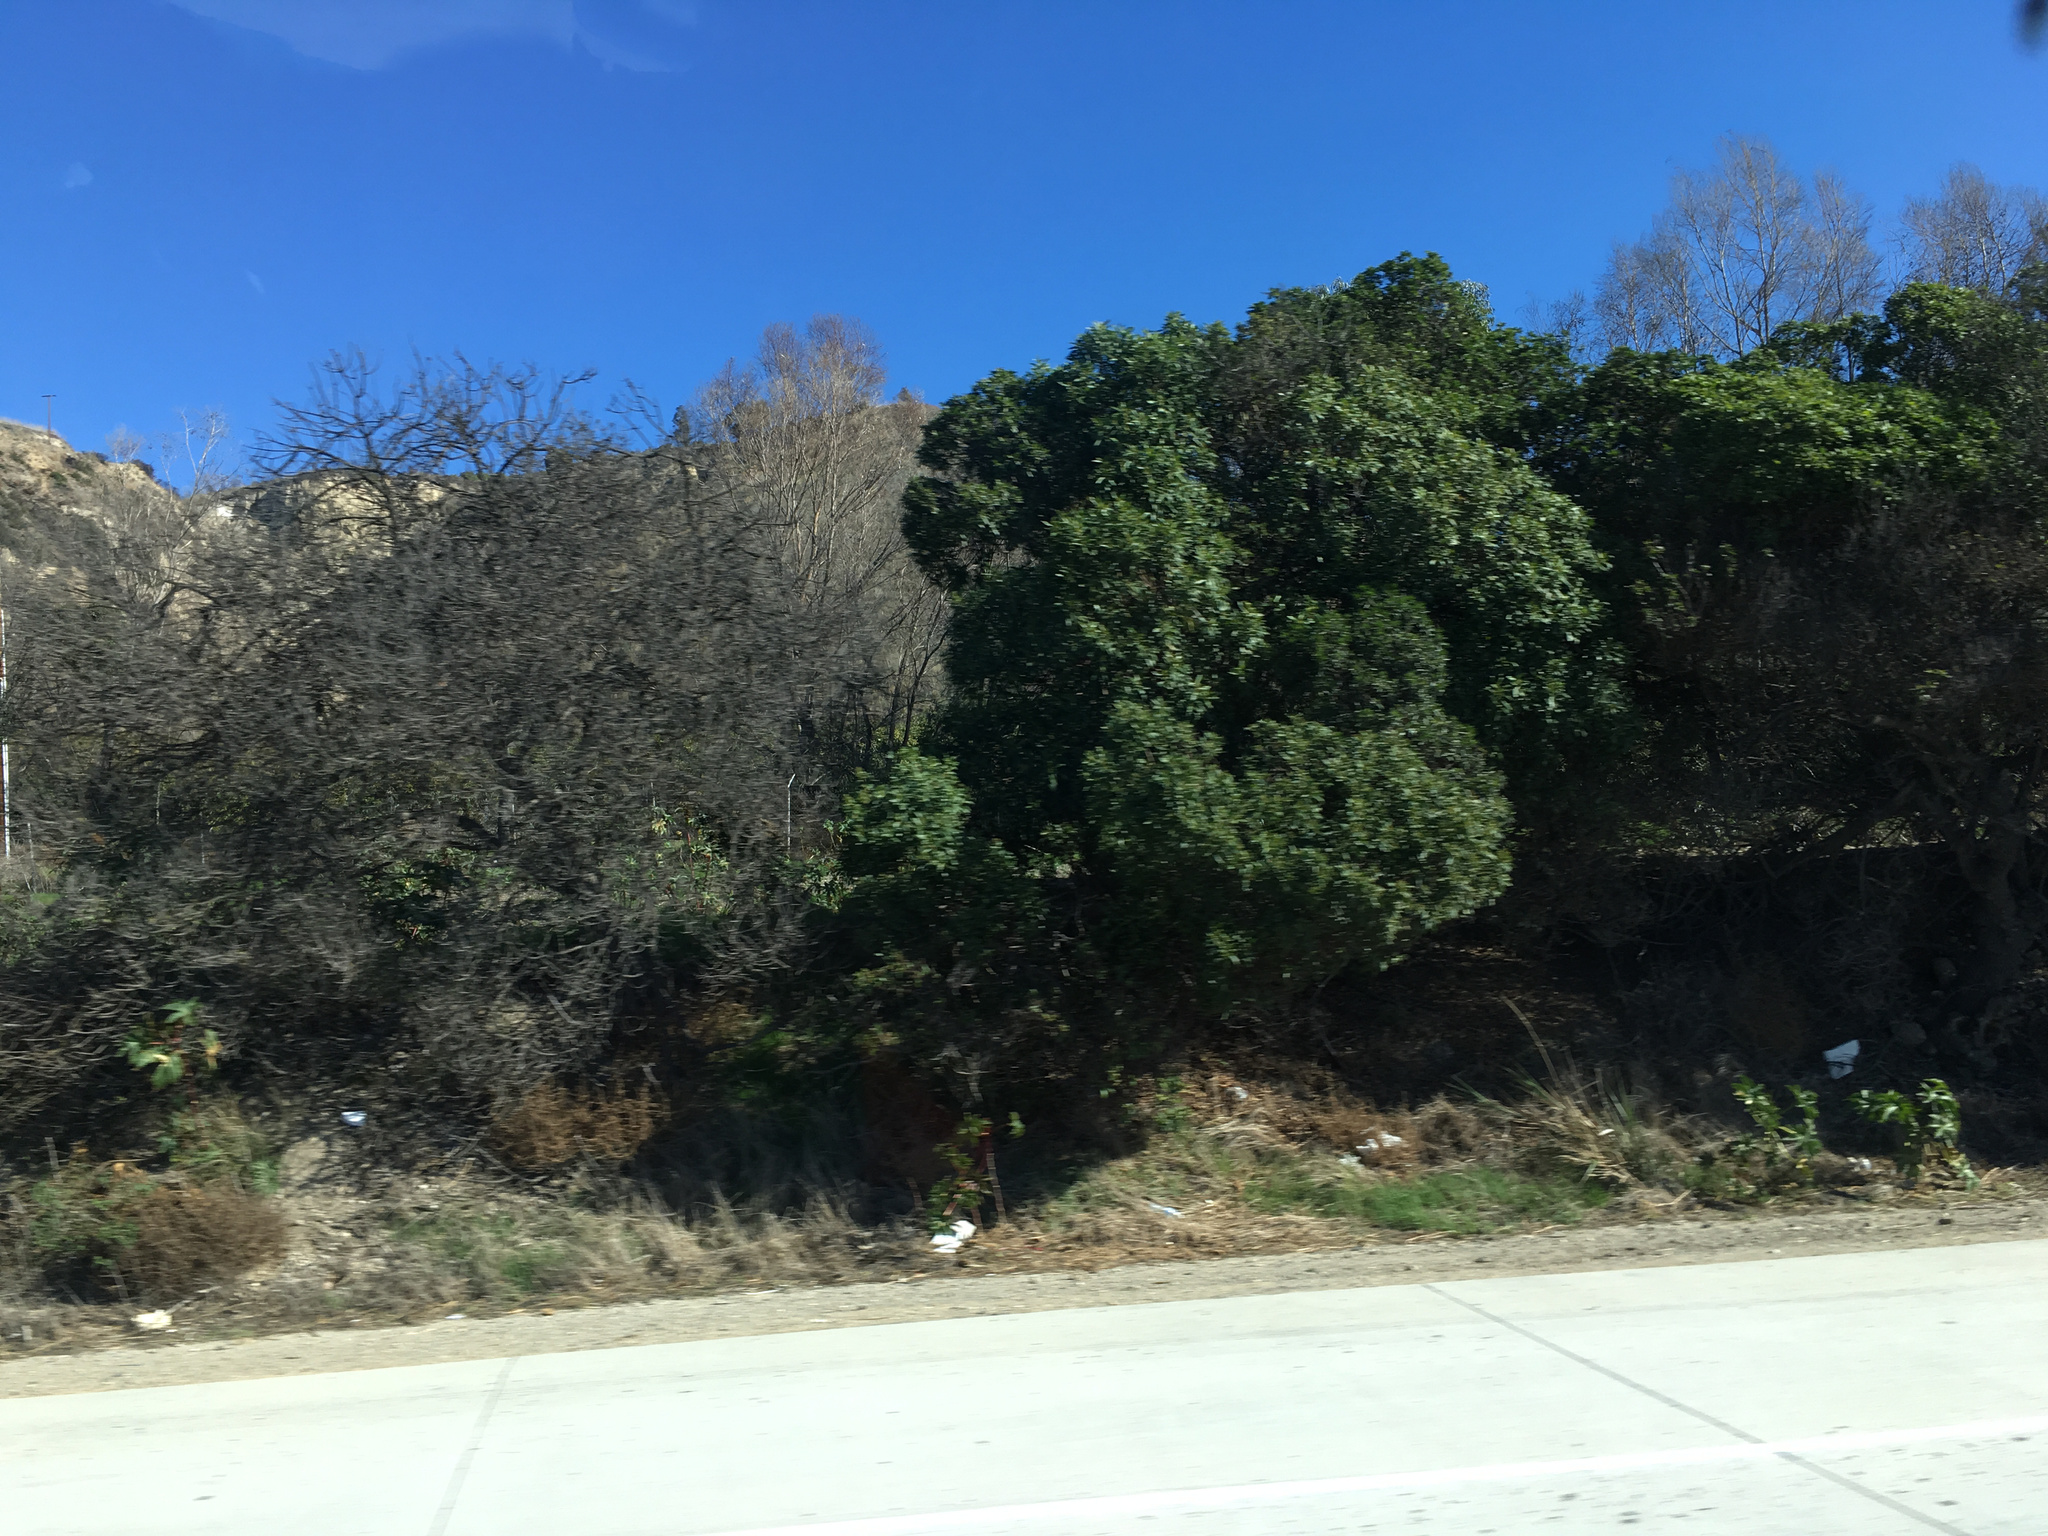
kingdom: Plantae
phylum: Tracheophyta
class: Magnoliopsida
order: Lamiales
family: Scrophulariaceae
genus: Myoporum
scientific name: Myoporum laetum
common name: Ngaio tree
